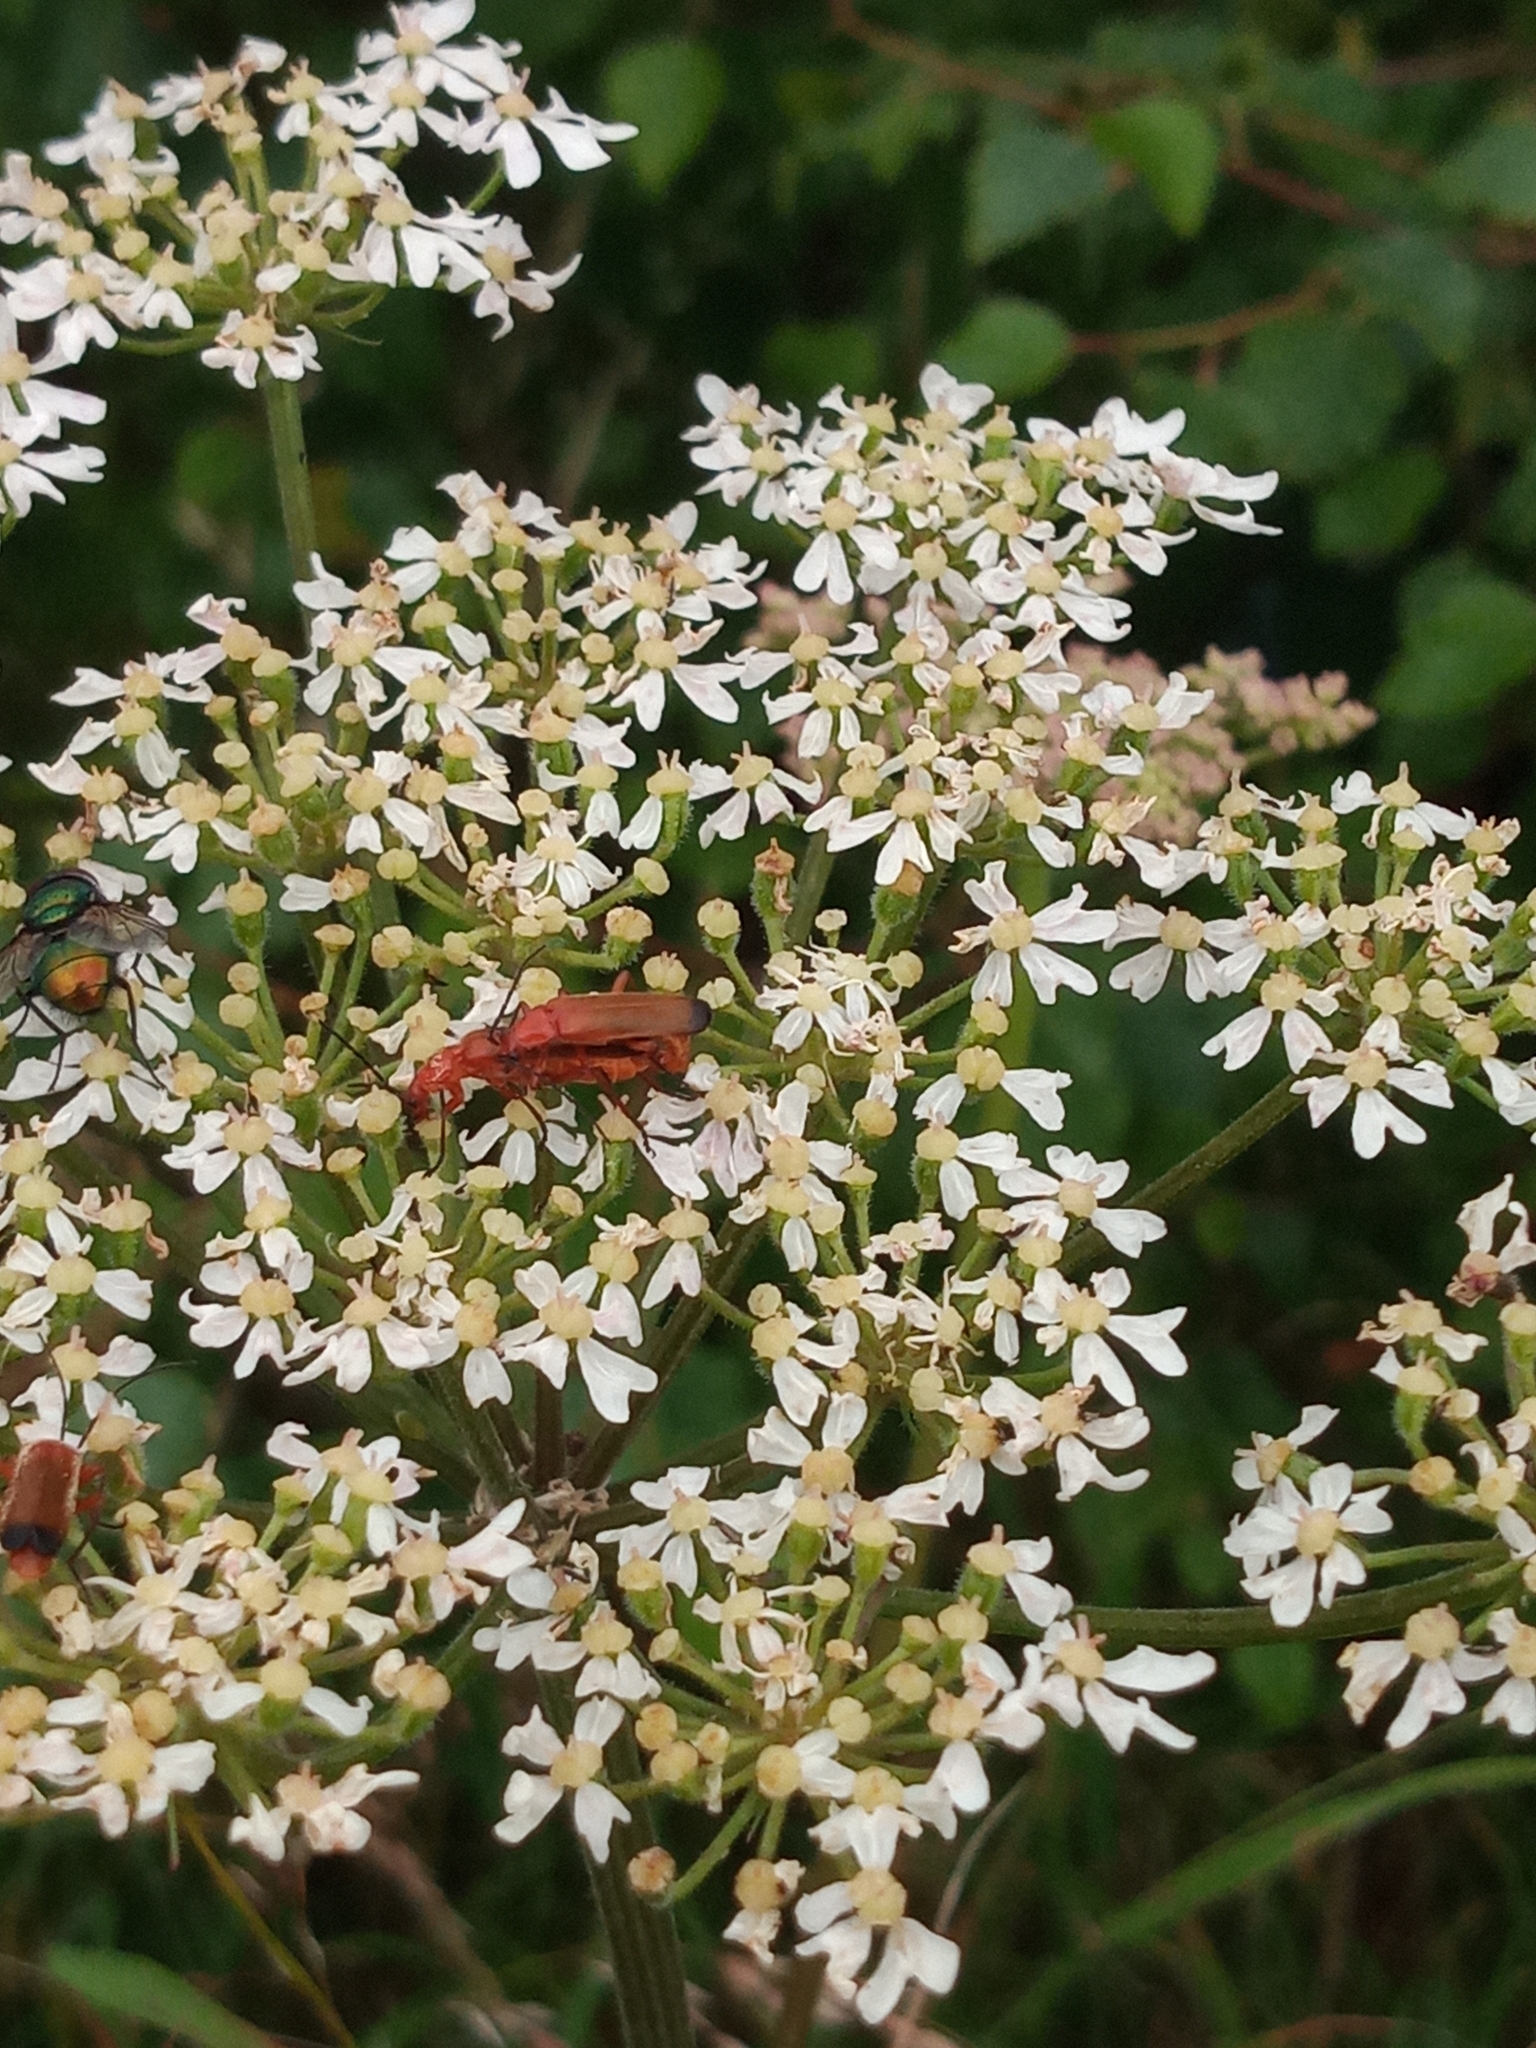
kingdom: Animalia
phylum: Arthropoda
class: Insecta
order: Coleoptera
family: Cantharidae
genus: Rhagonycha
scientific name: Rhagonycha fulva
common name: Common red soldier beetle
